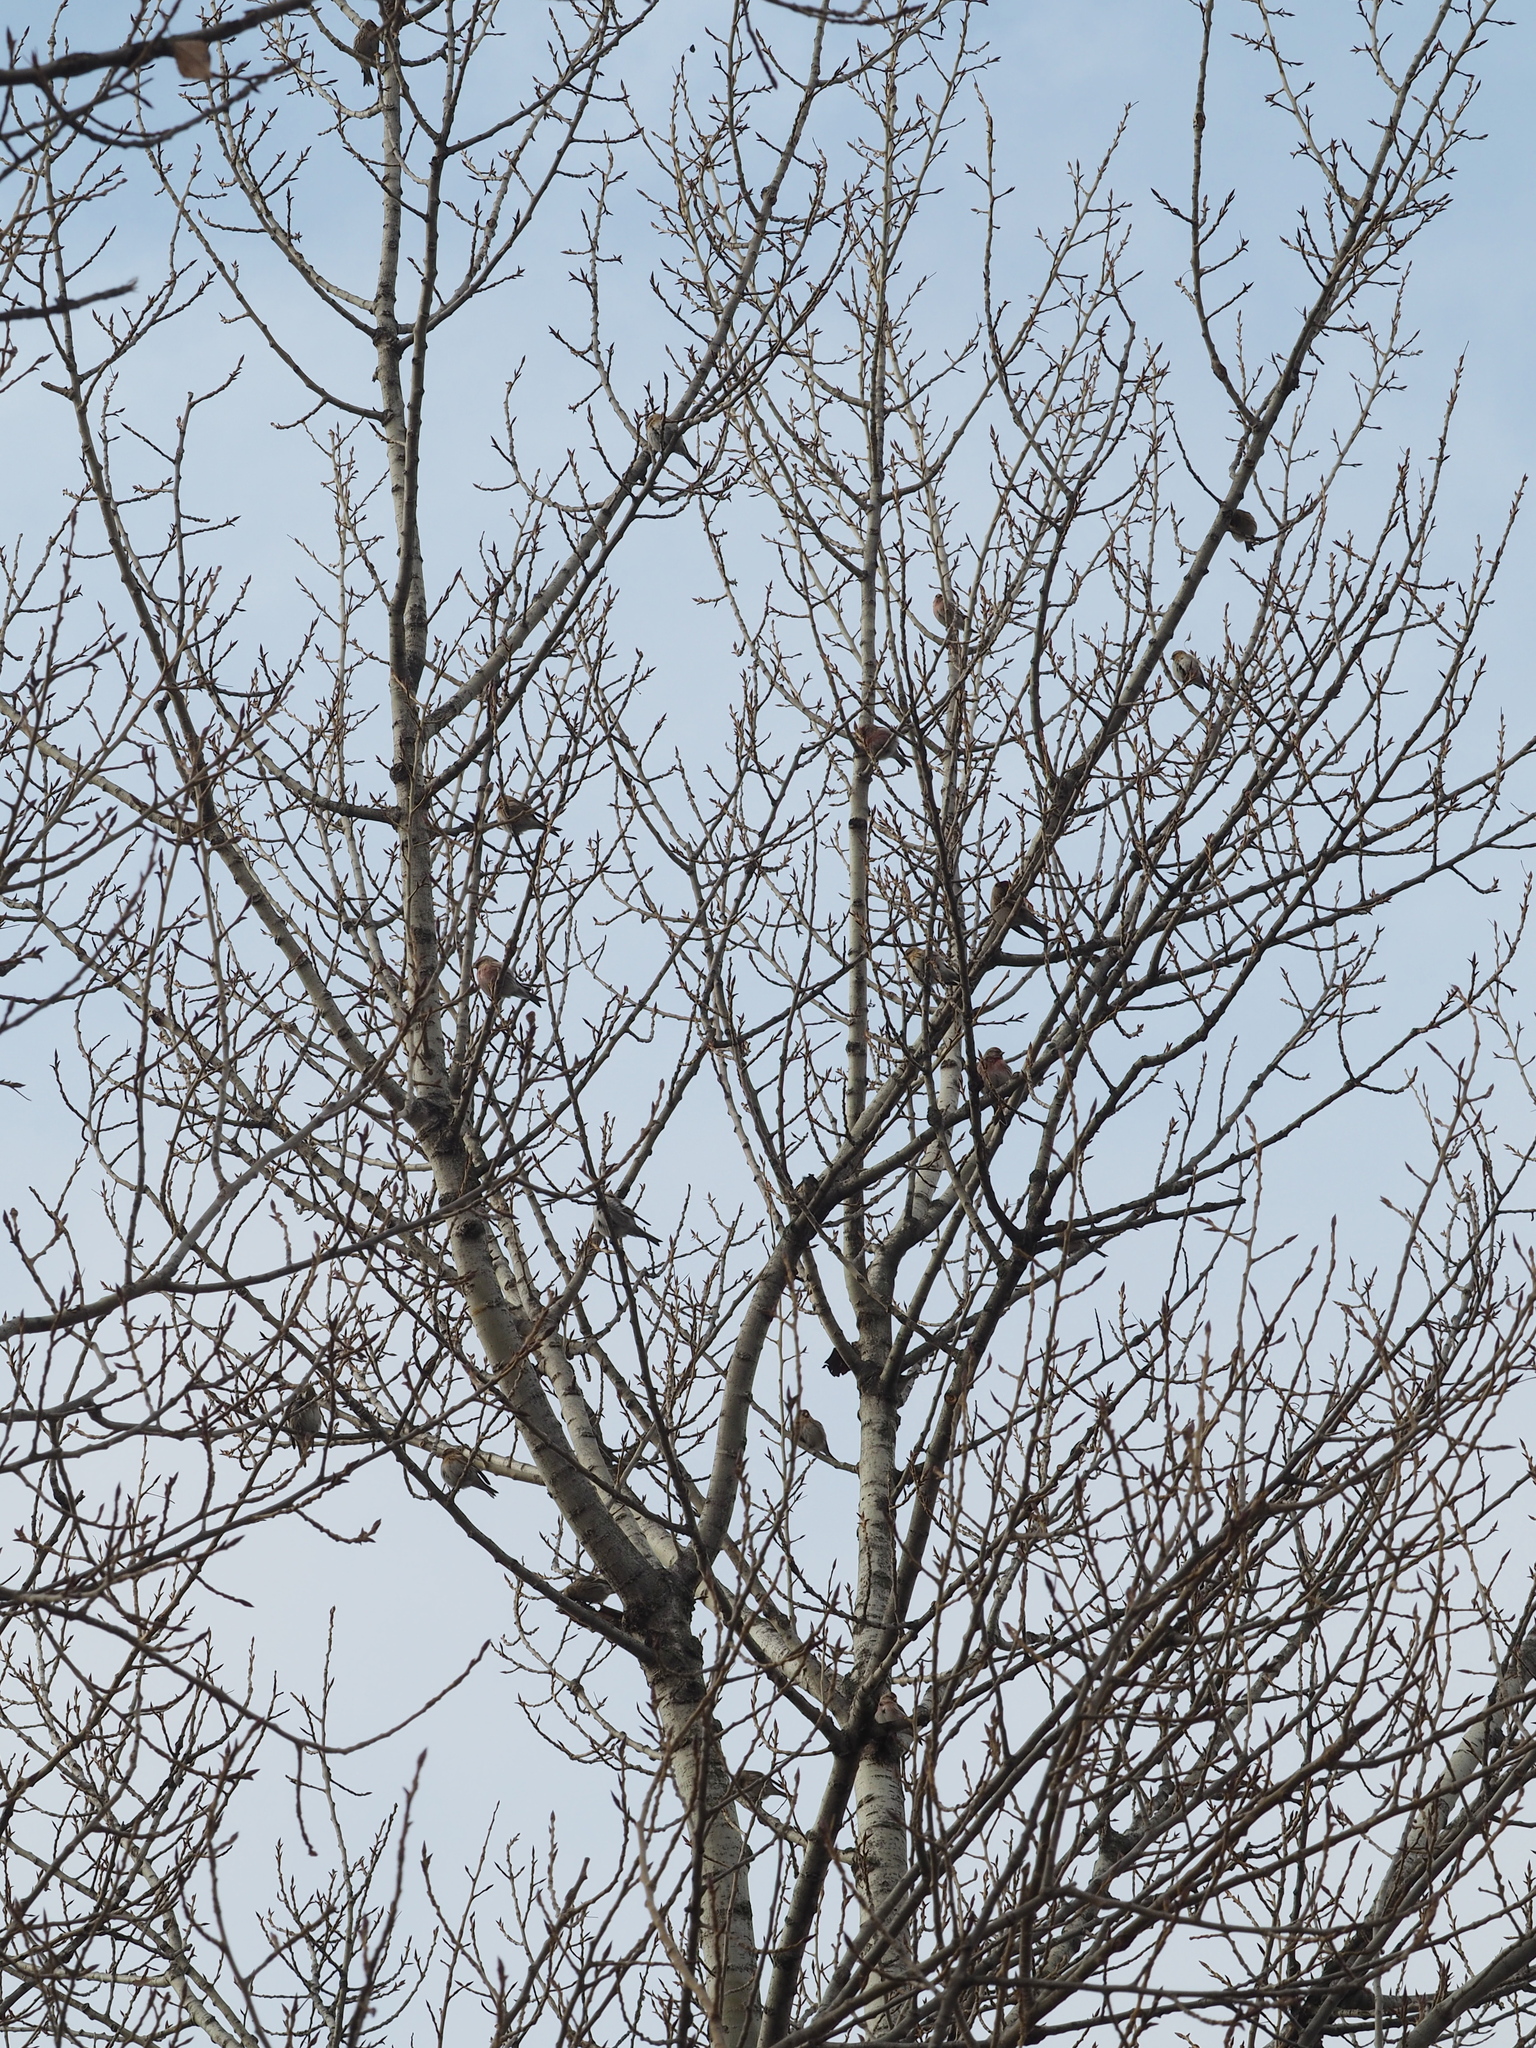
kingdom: Animalia
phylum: Chordata
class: Aves
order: Passeriformes
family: Fringillidae
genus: Acanthis
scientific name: Acanthis flammea
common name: Common redpoll
